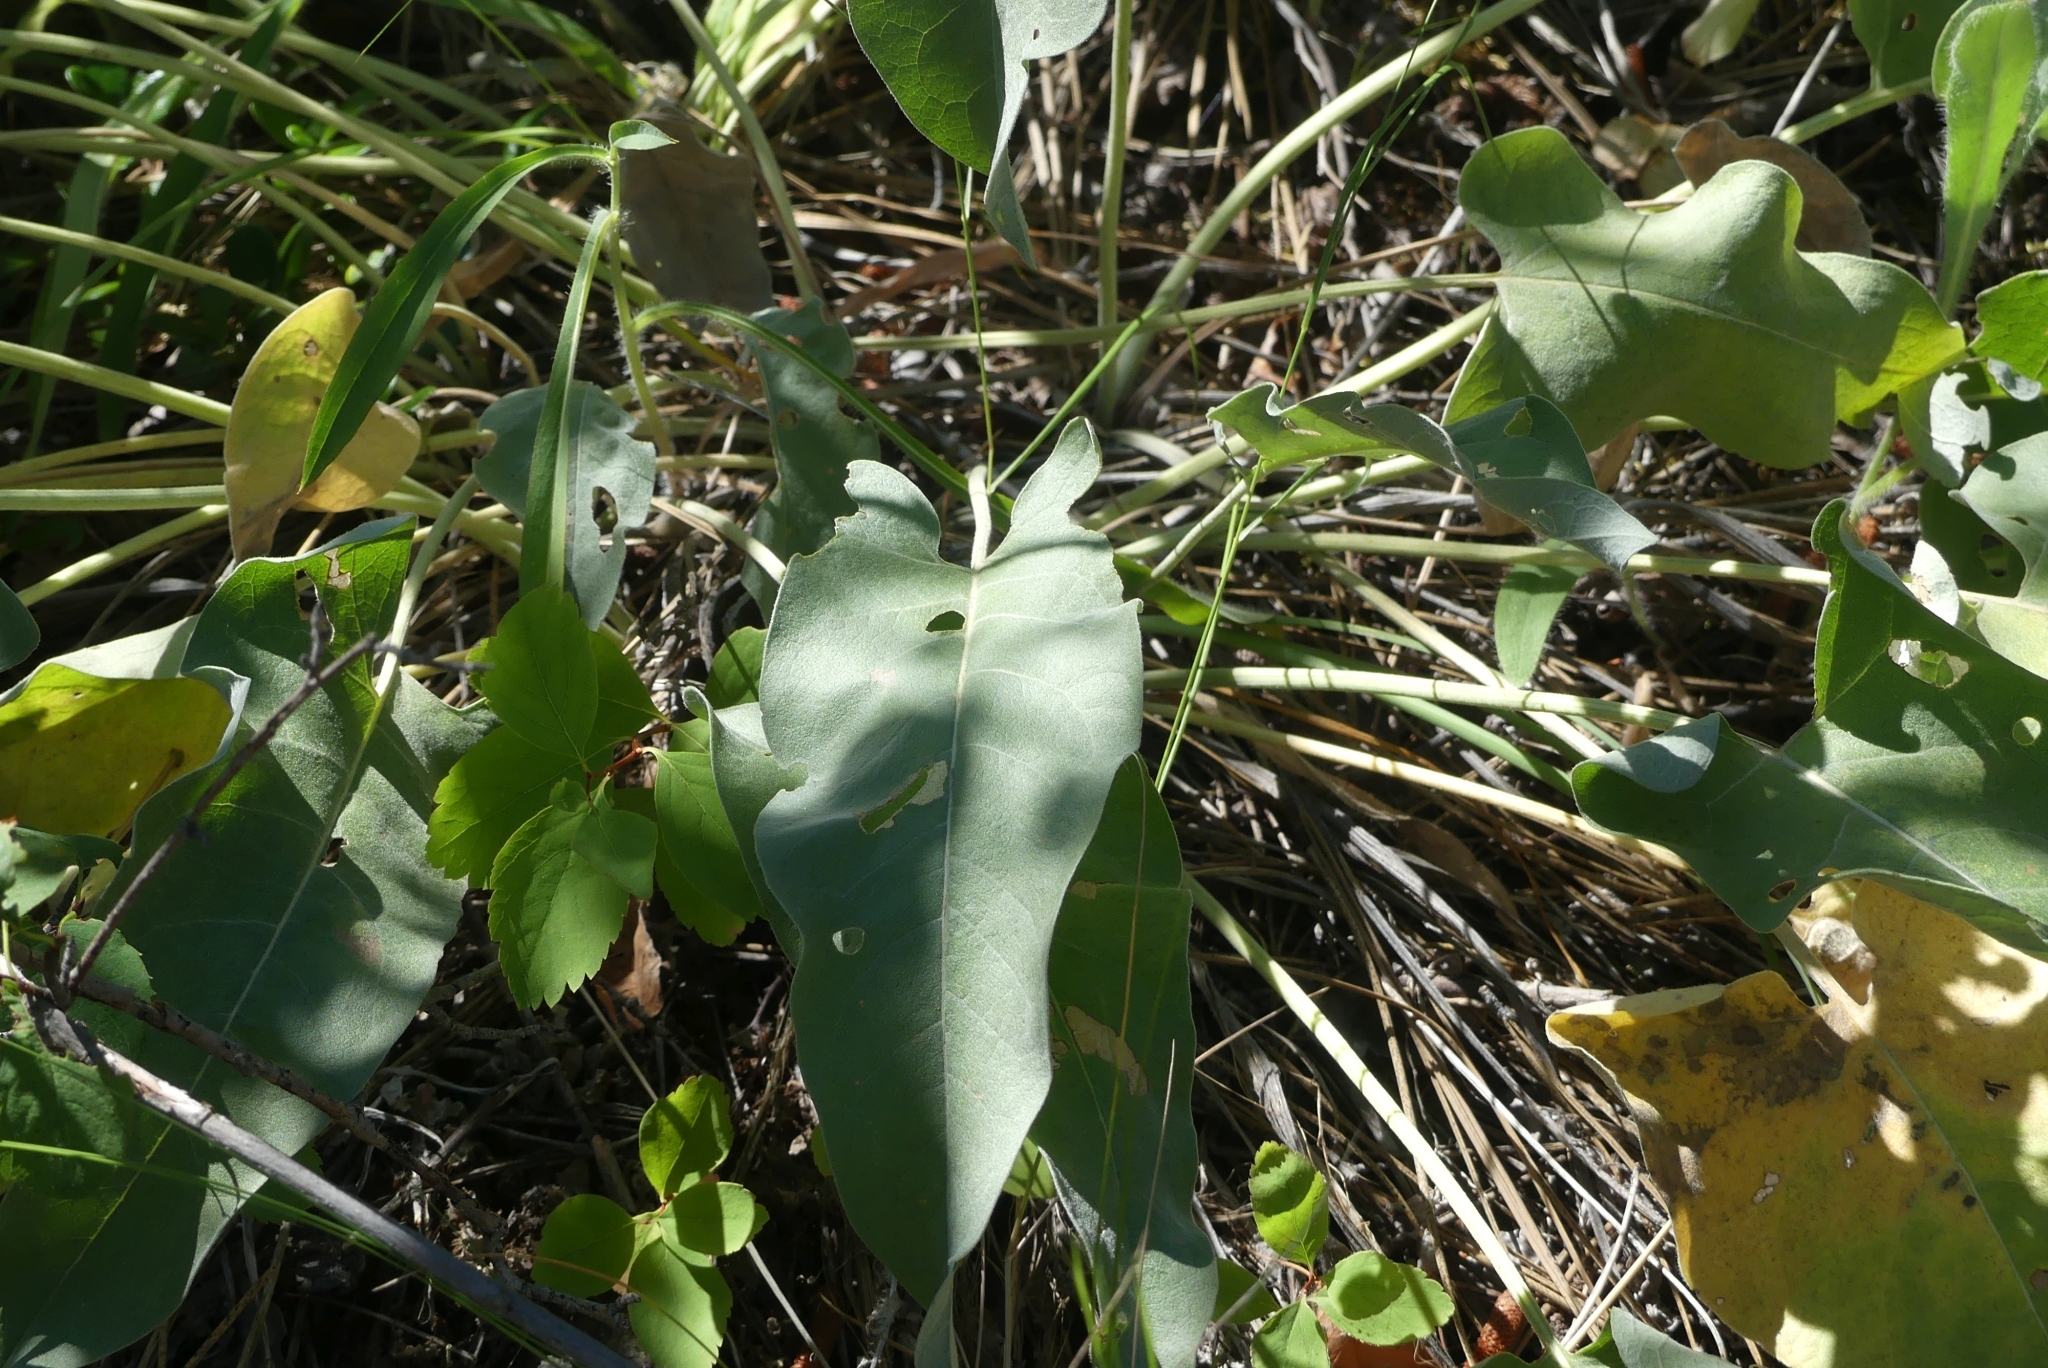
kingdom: Plantae
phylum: Tracheophyta
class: Magnoliopsida
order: Asterales
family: Asteraceae
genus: Wyethia
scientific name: Wyethia sagittata
